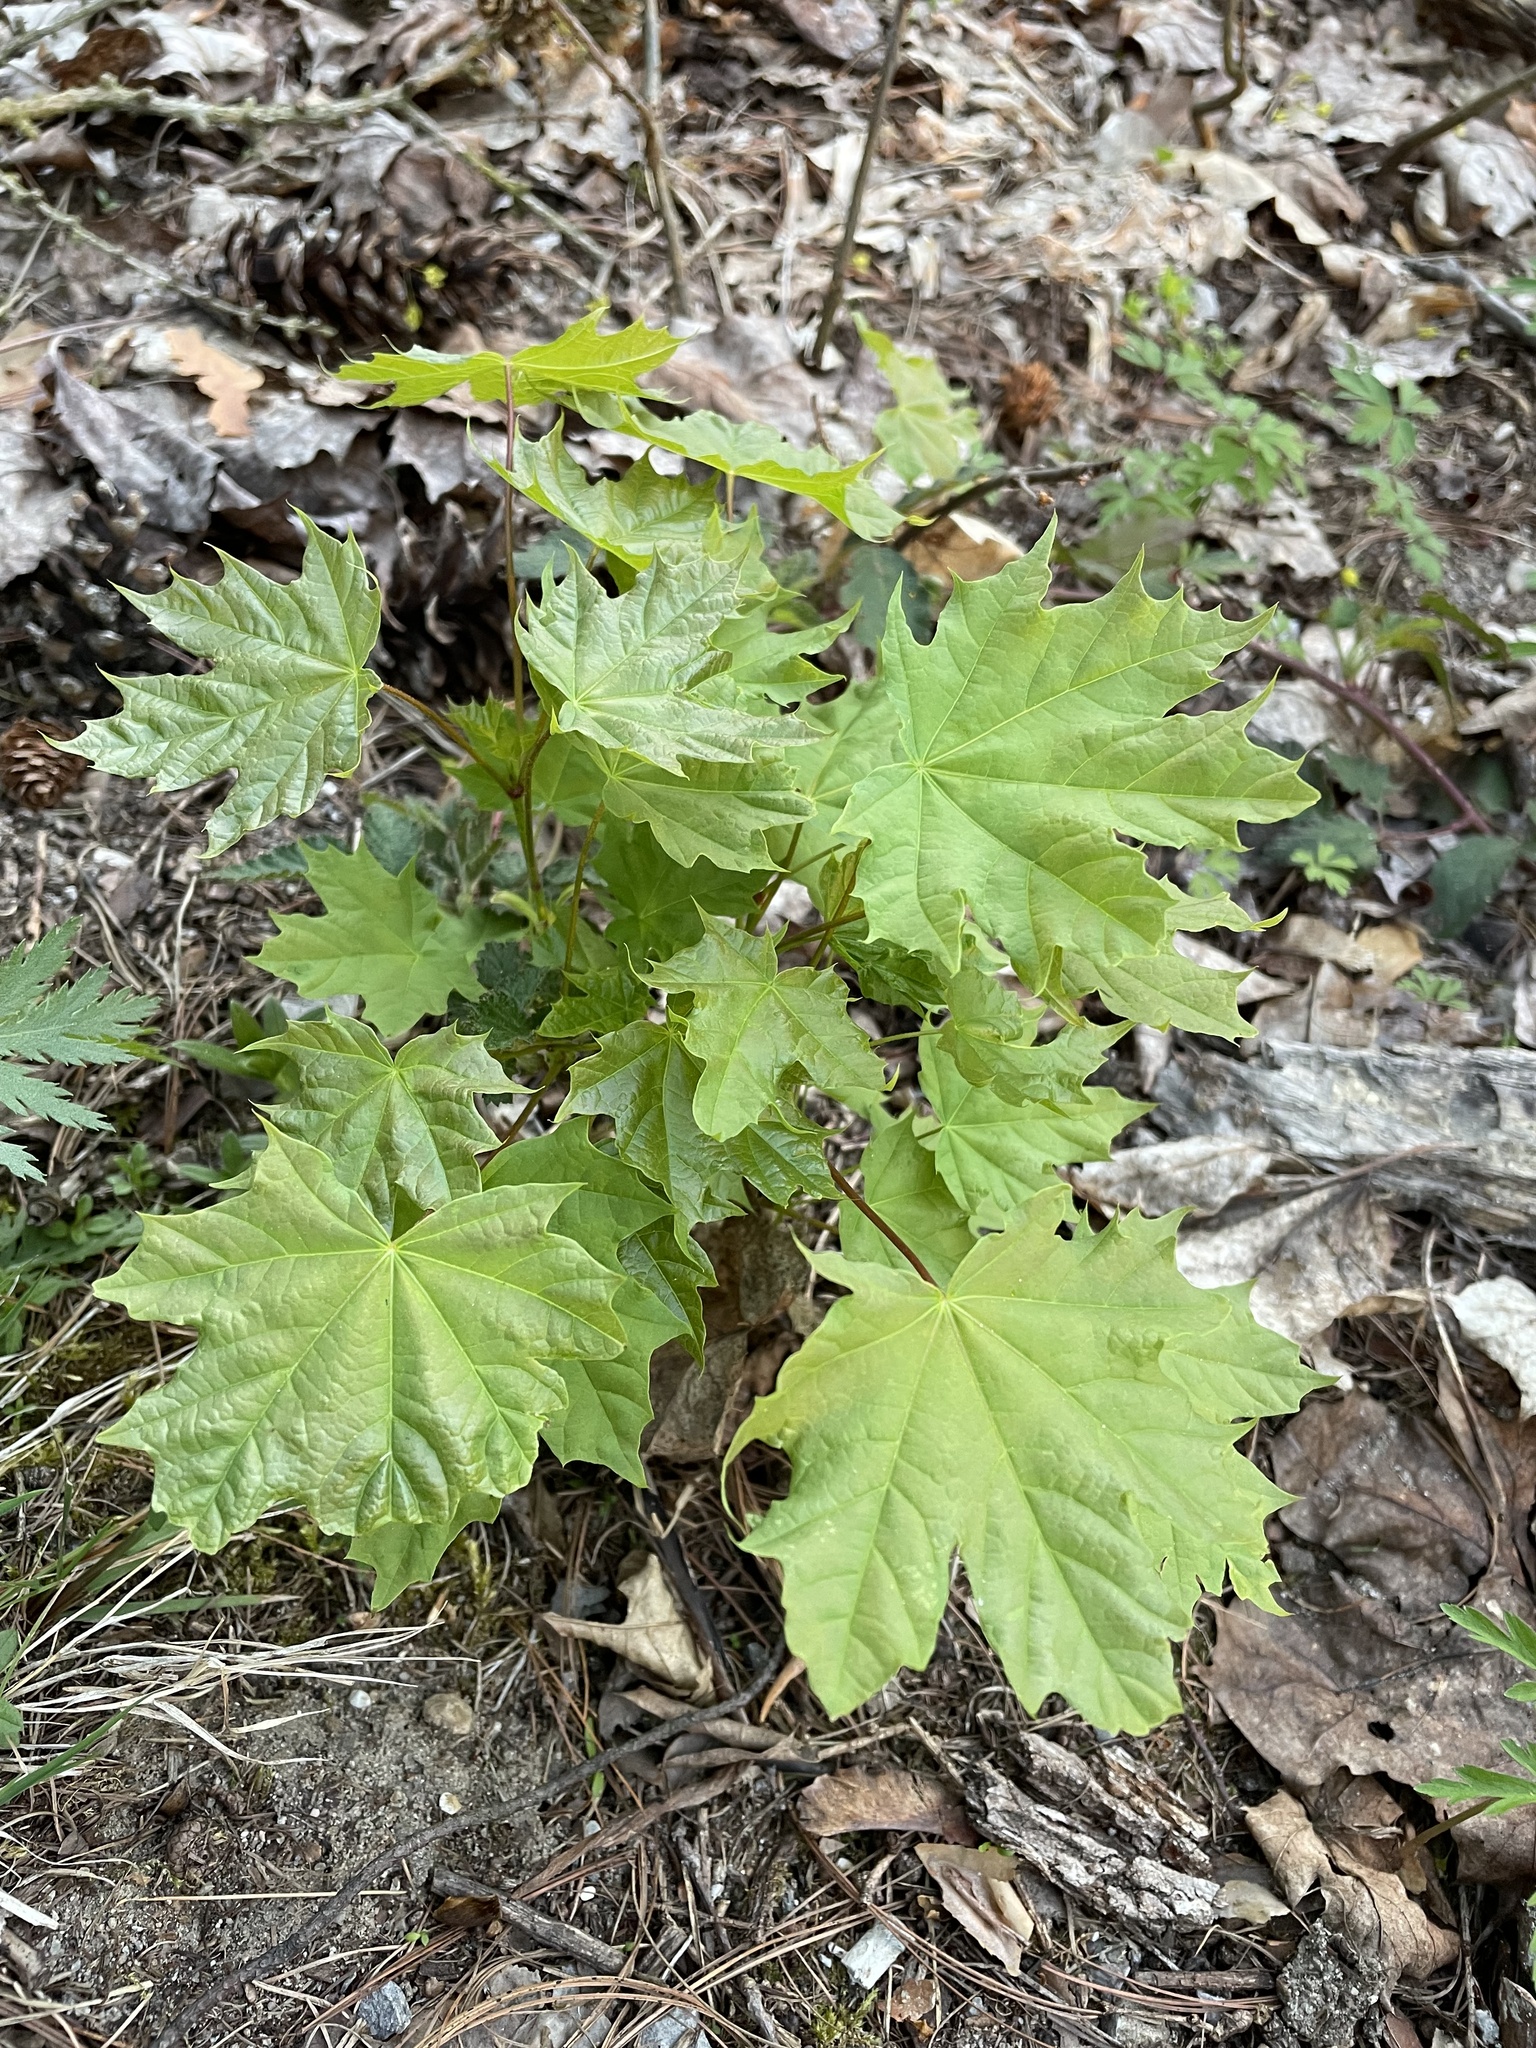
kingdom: Plantae
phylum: Tracheophyta
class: Magnoliopsida
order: Sapindales
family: Sapindaceae
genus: Acer
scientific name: Acer platanoides
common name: Norway maple
